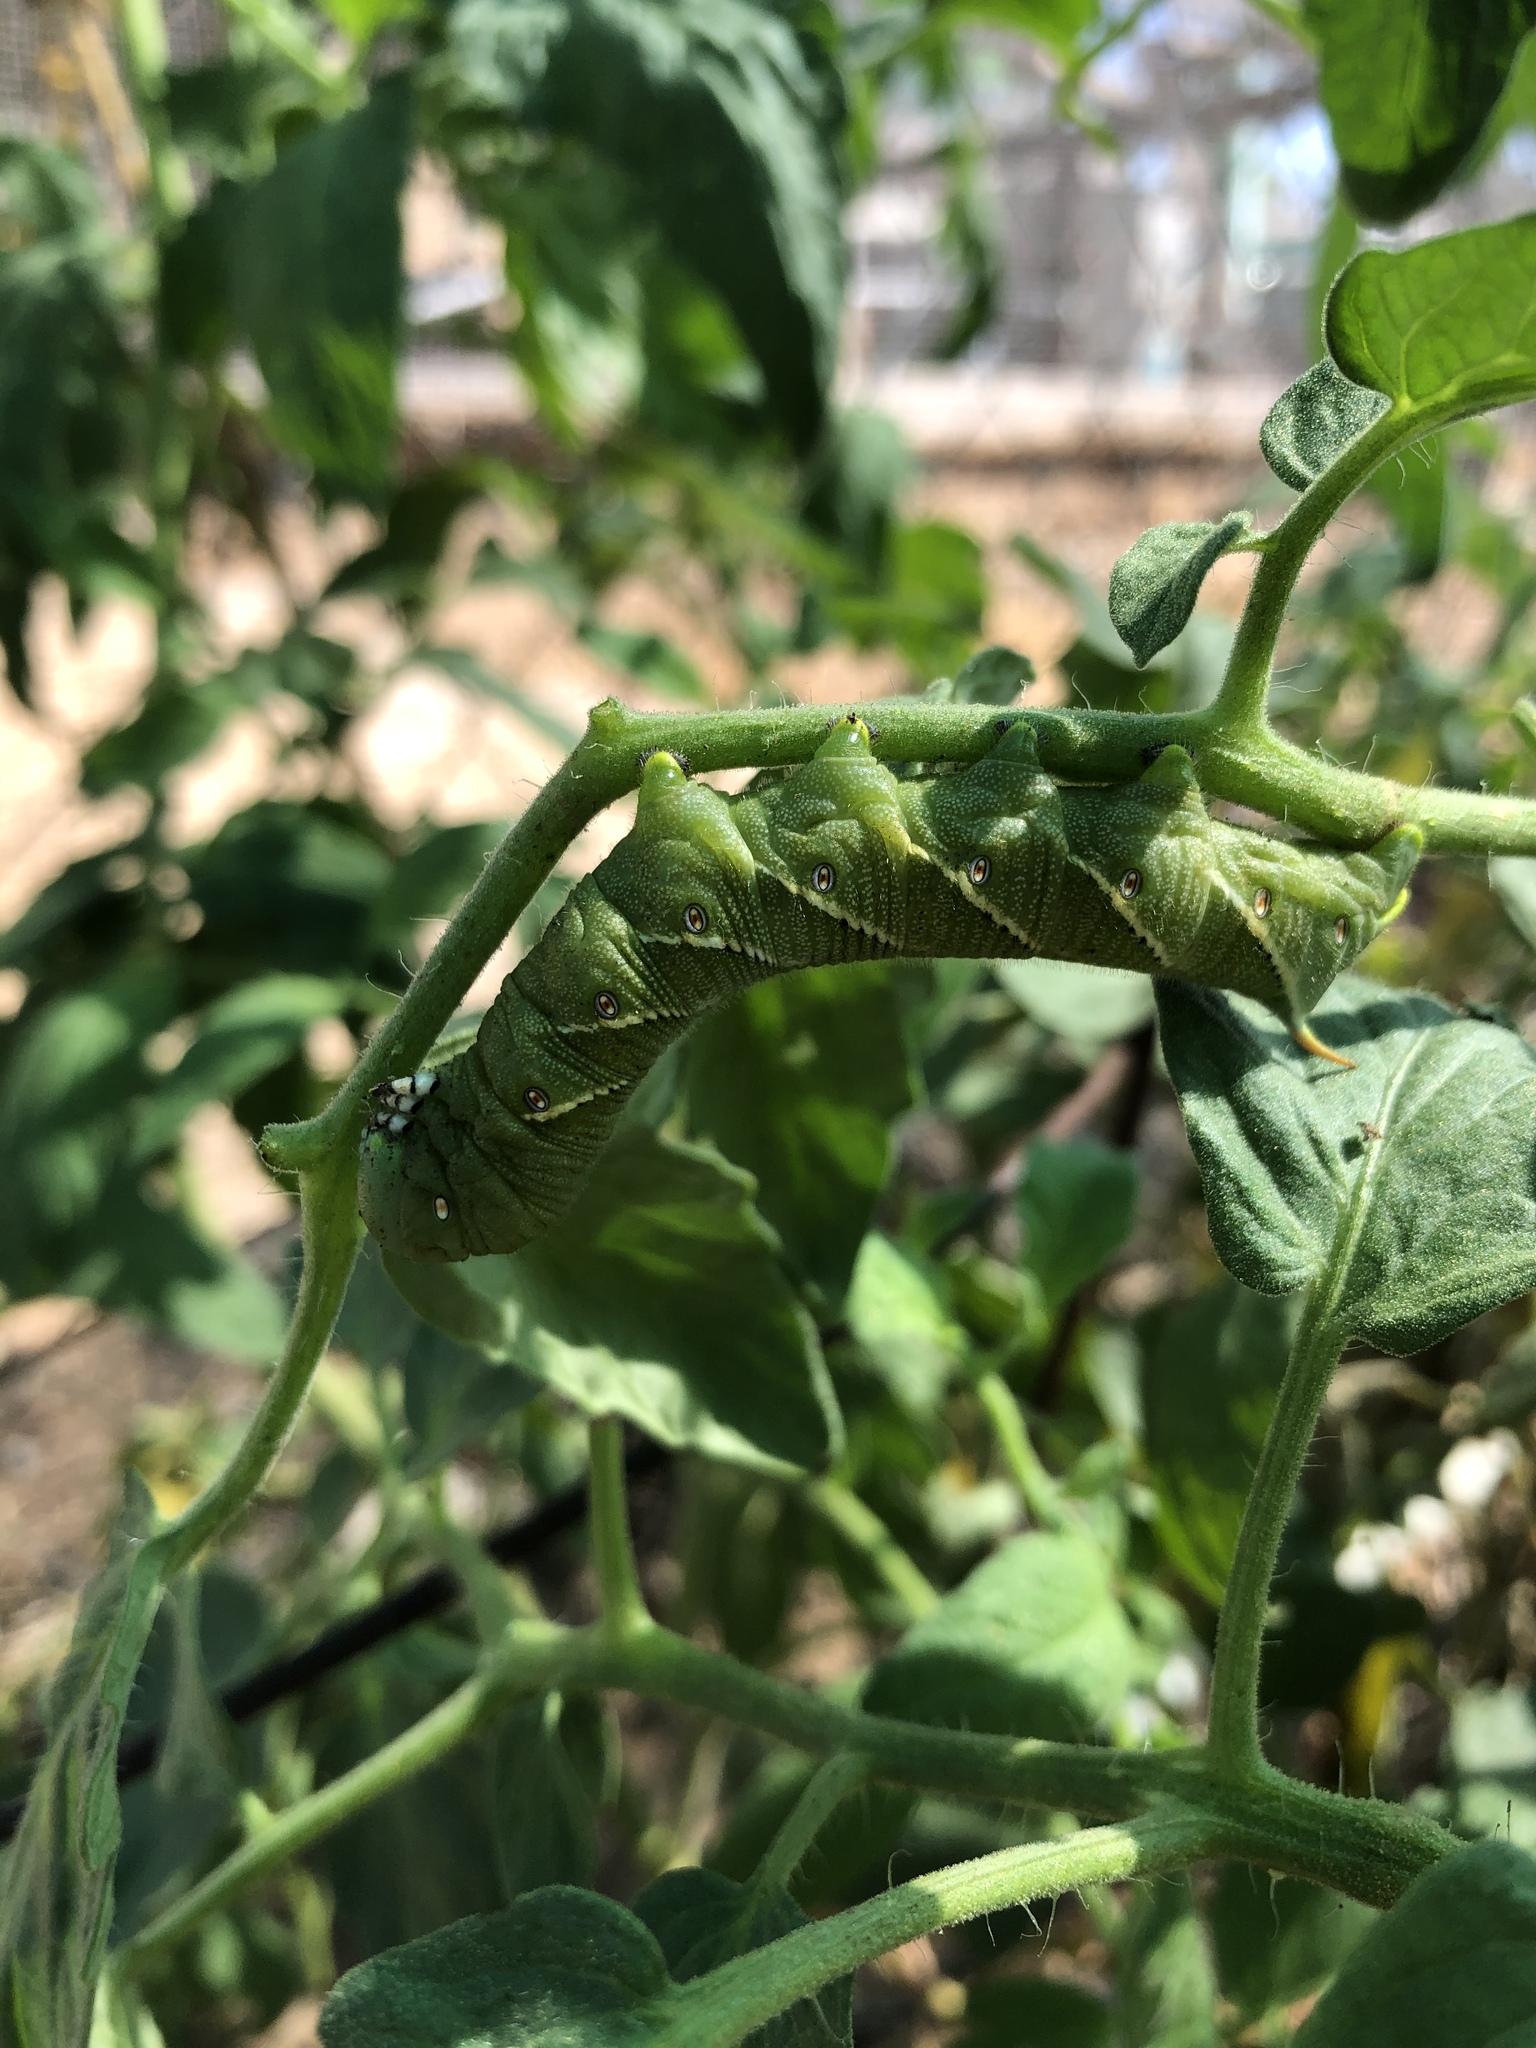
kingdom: Animalia
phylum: Arthropoda
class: Insecta
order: Lepidoptera
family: Sphingidae
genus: Manduca
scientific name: Manduca sexta
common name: Carolina sphinx
